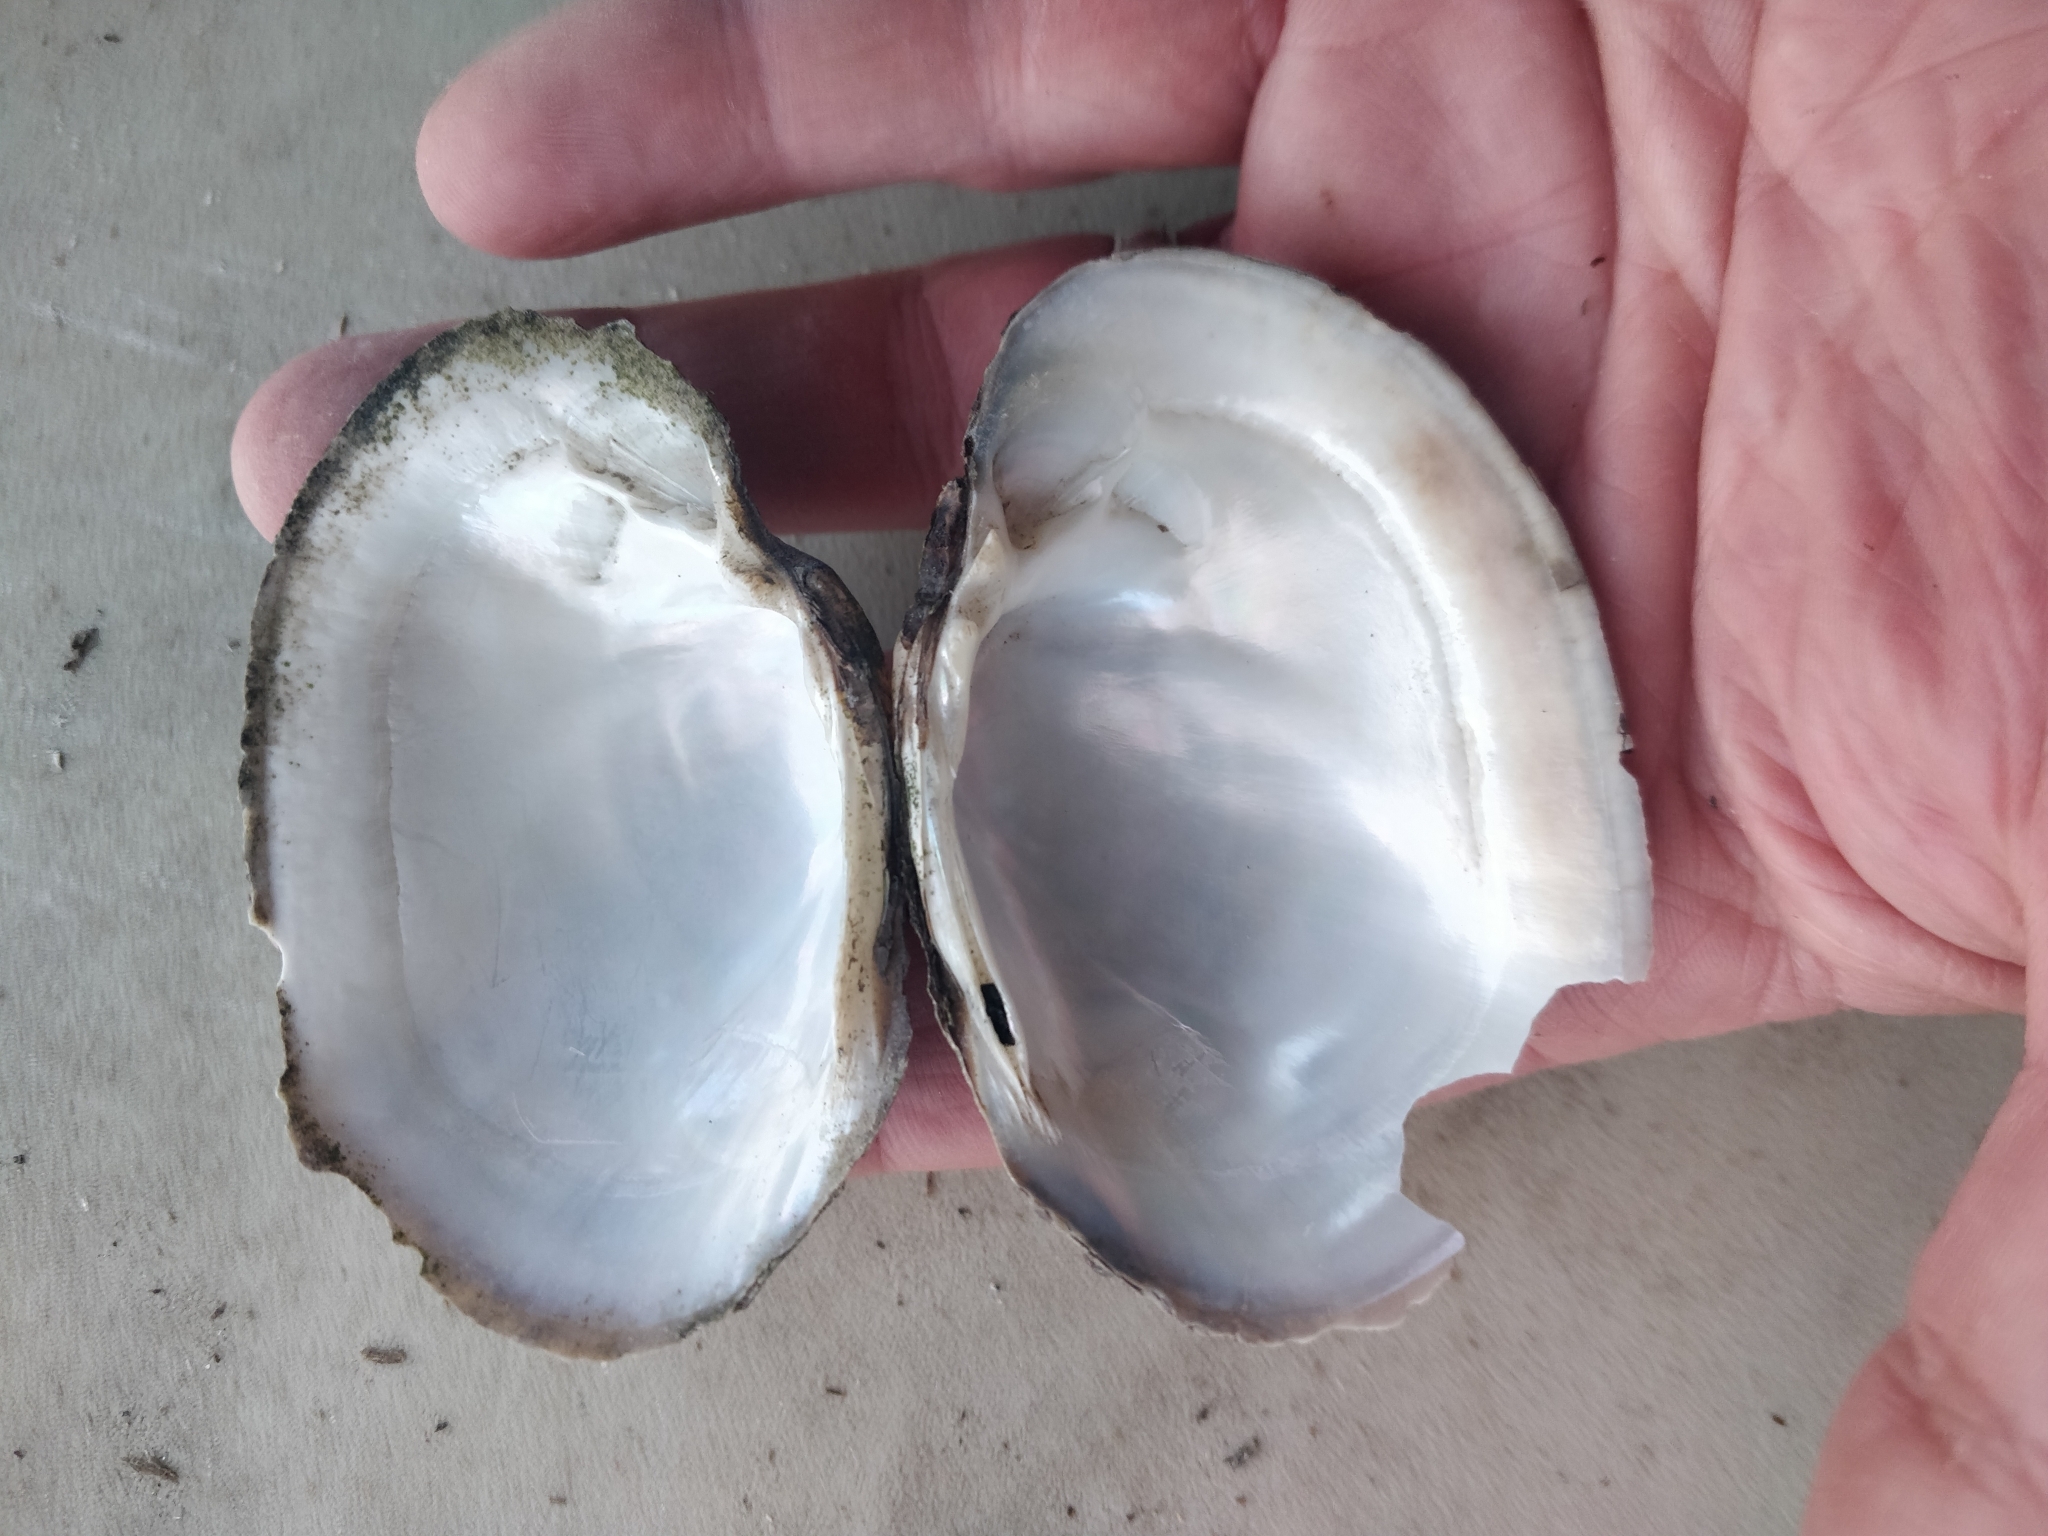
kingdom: Animalia
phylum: Mollusca
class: Bivalvia
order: Unionida
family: Unionidae
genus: Lampsilis
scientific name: Lampsilis cardium
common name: Plain pocketbook
